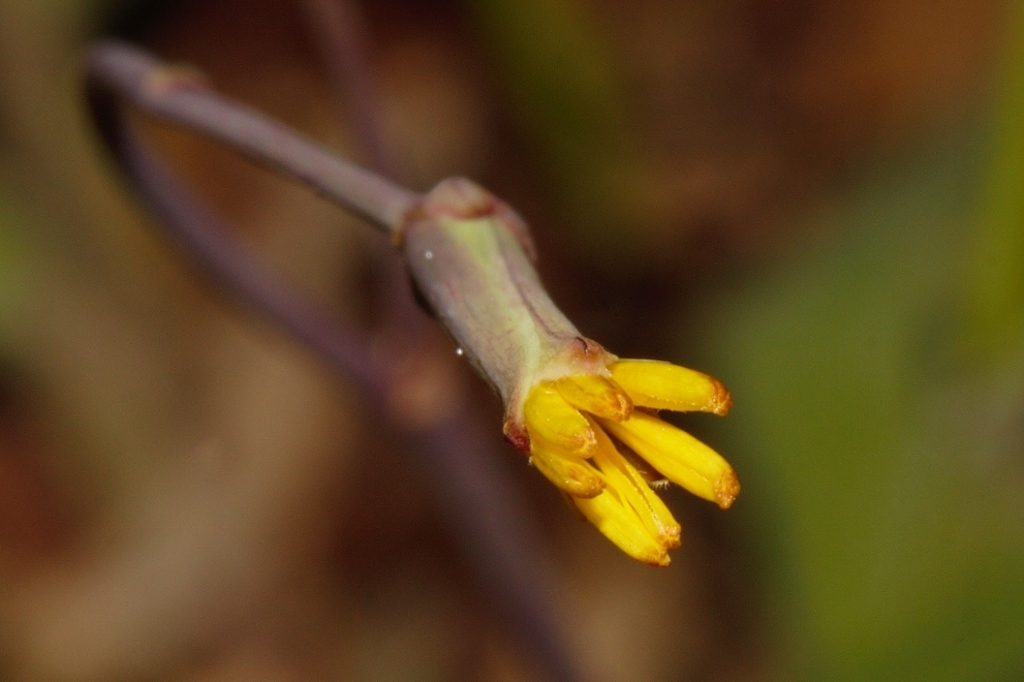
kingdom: Plantae
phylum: Tracheophyta
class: Magnoliopsida
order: Asterales
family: Asteraceae
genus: Launaea
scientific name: Launaea rarifolia
